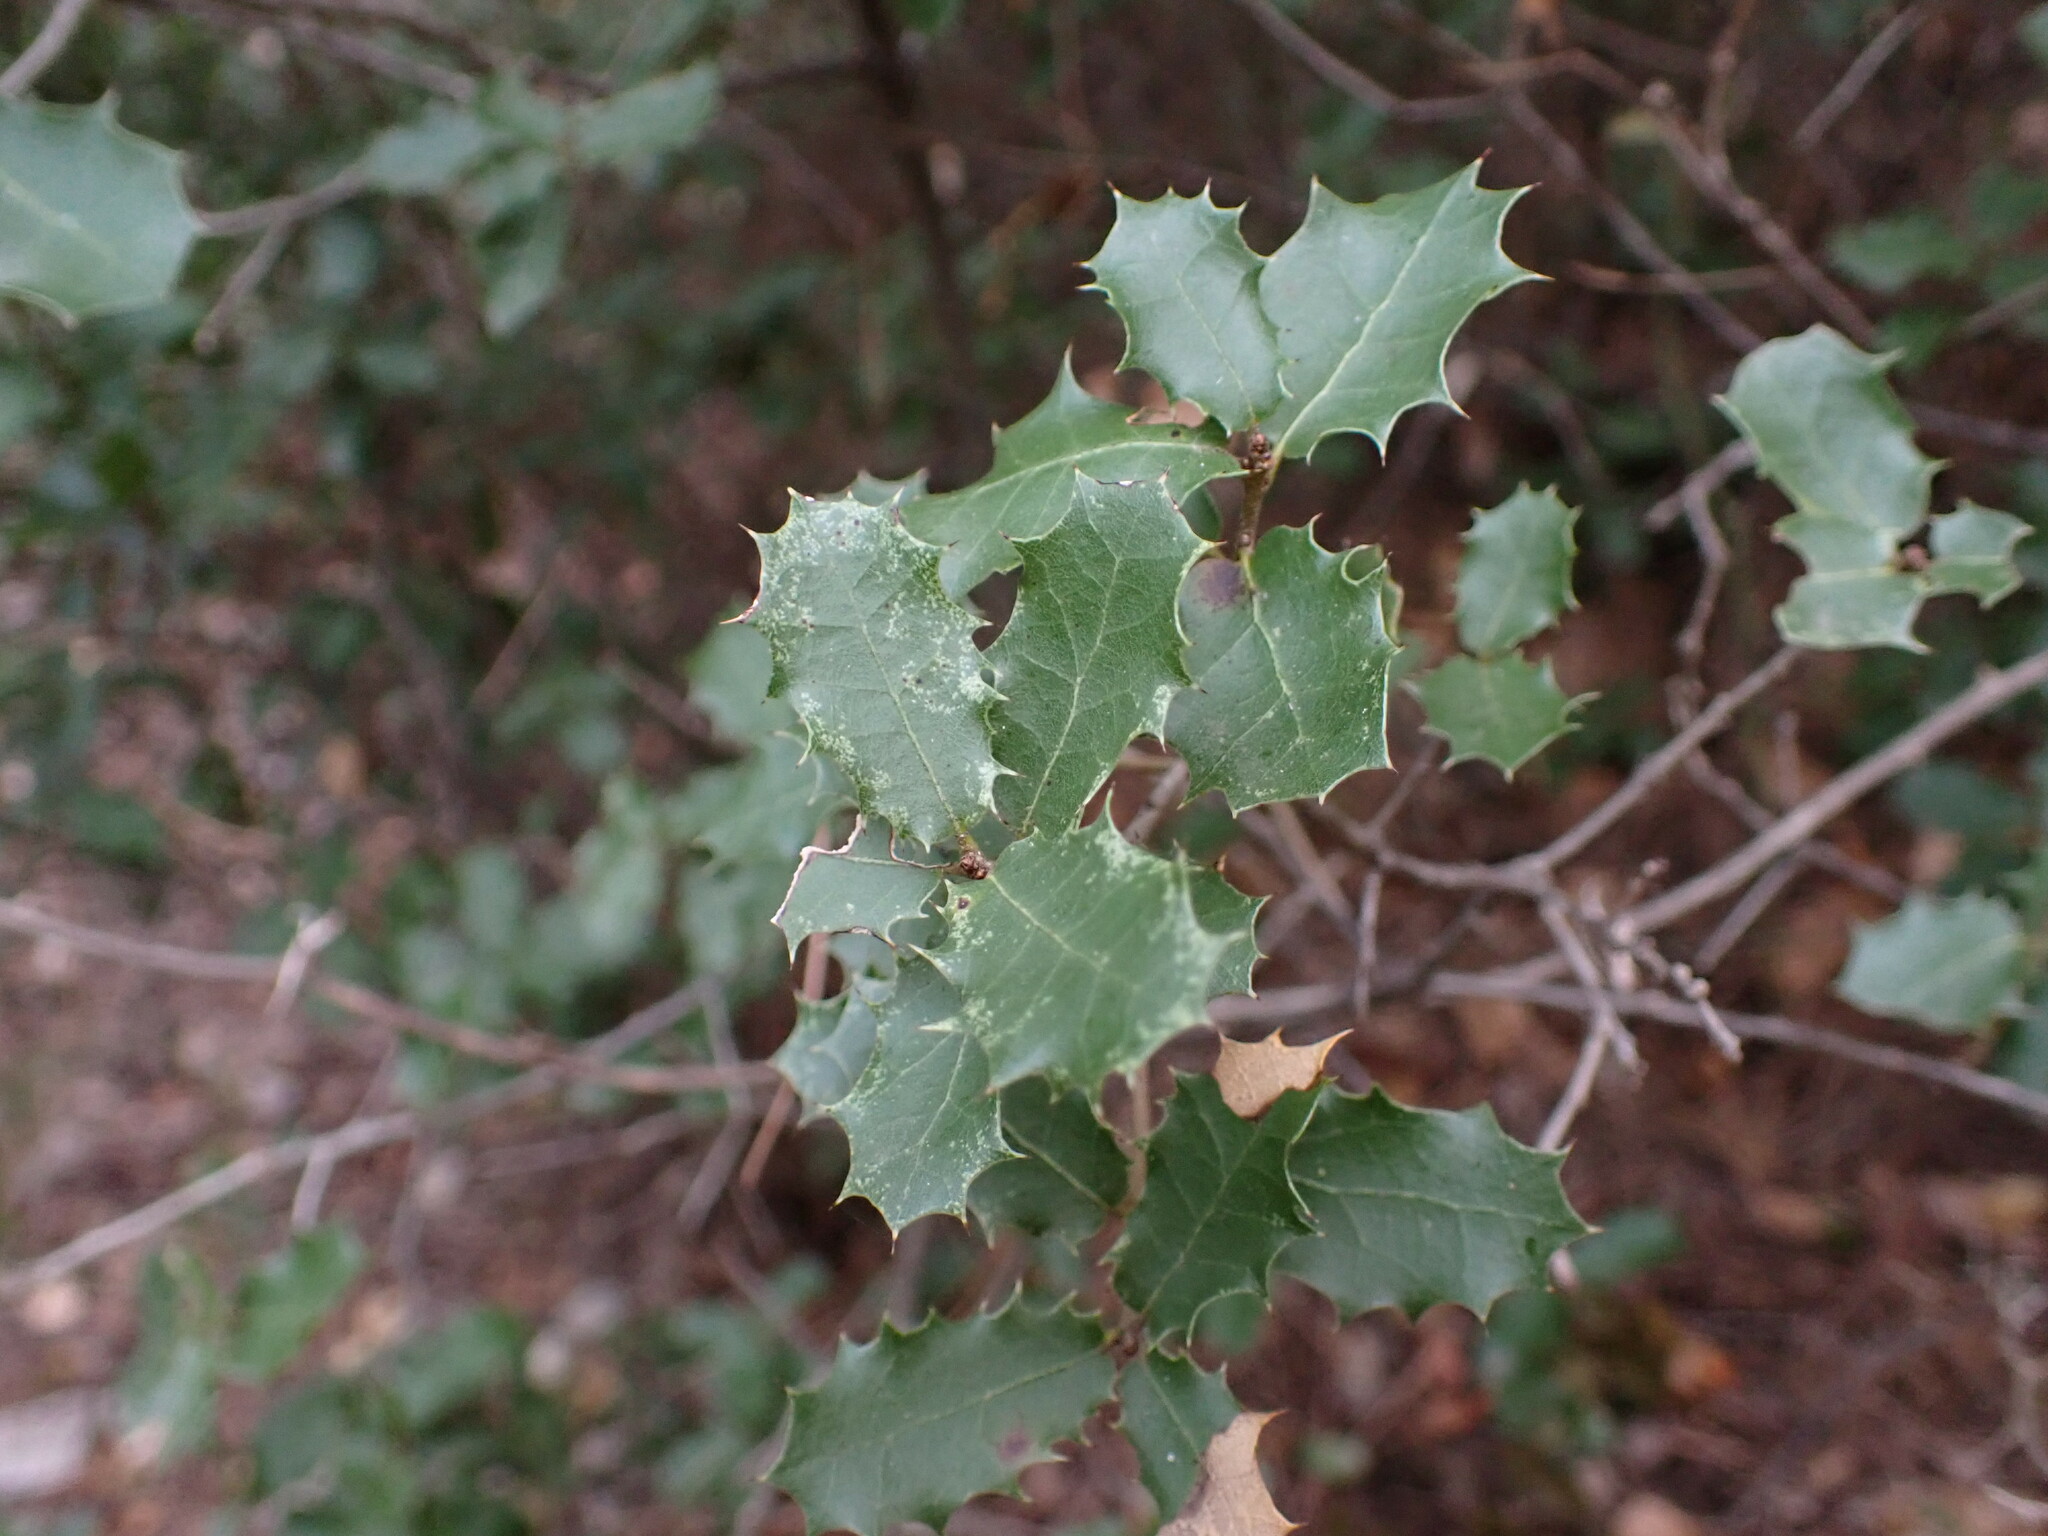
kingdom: Plantae
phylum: Tracheophyta
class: Magnoliopsida
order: Fagales
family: Fagaceae
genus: Quercus
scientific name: Quercus coccifera
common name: Kermes oak
